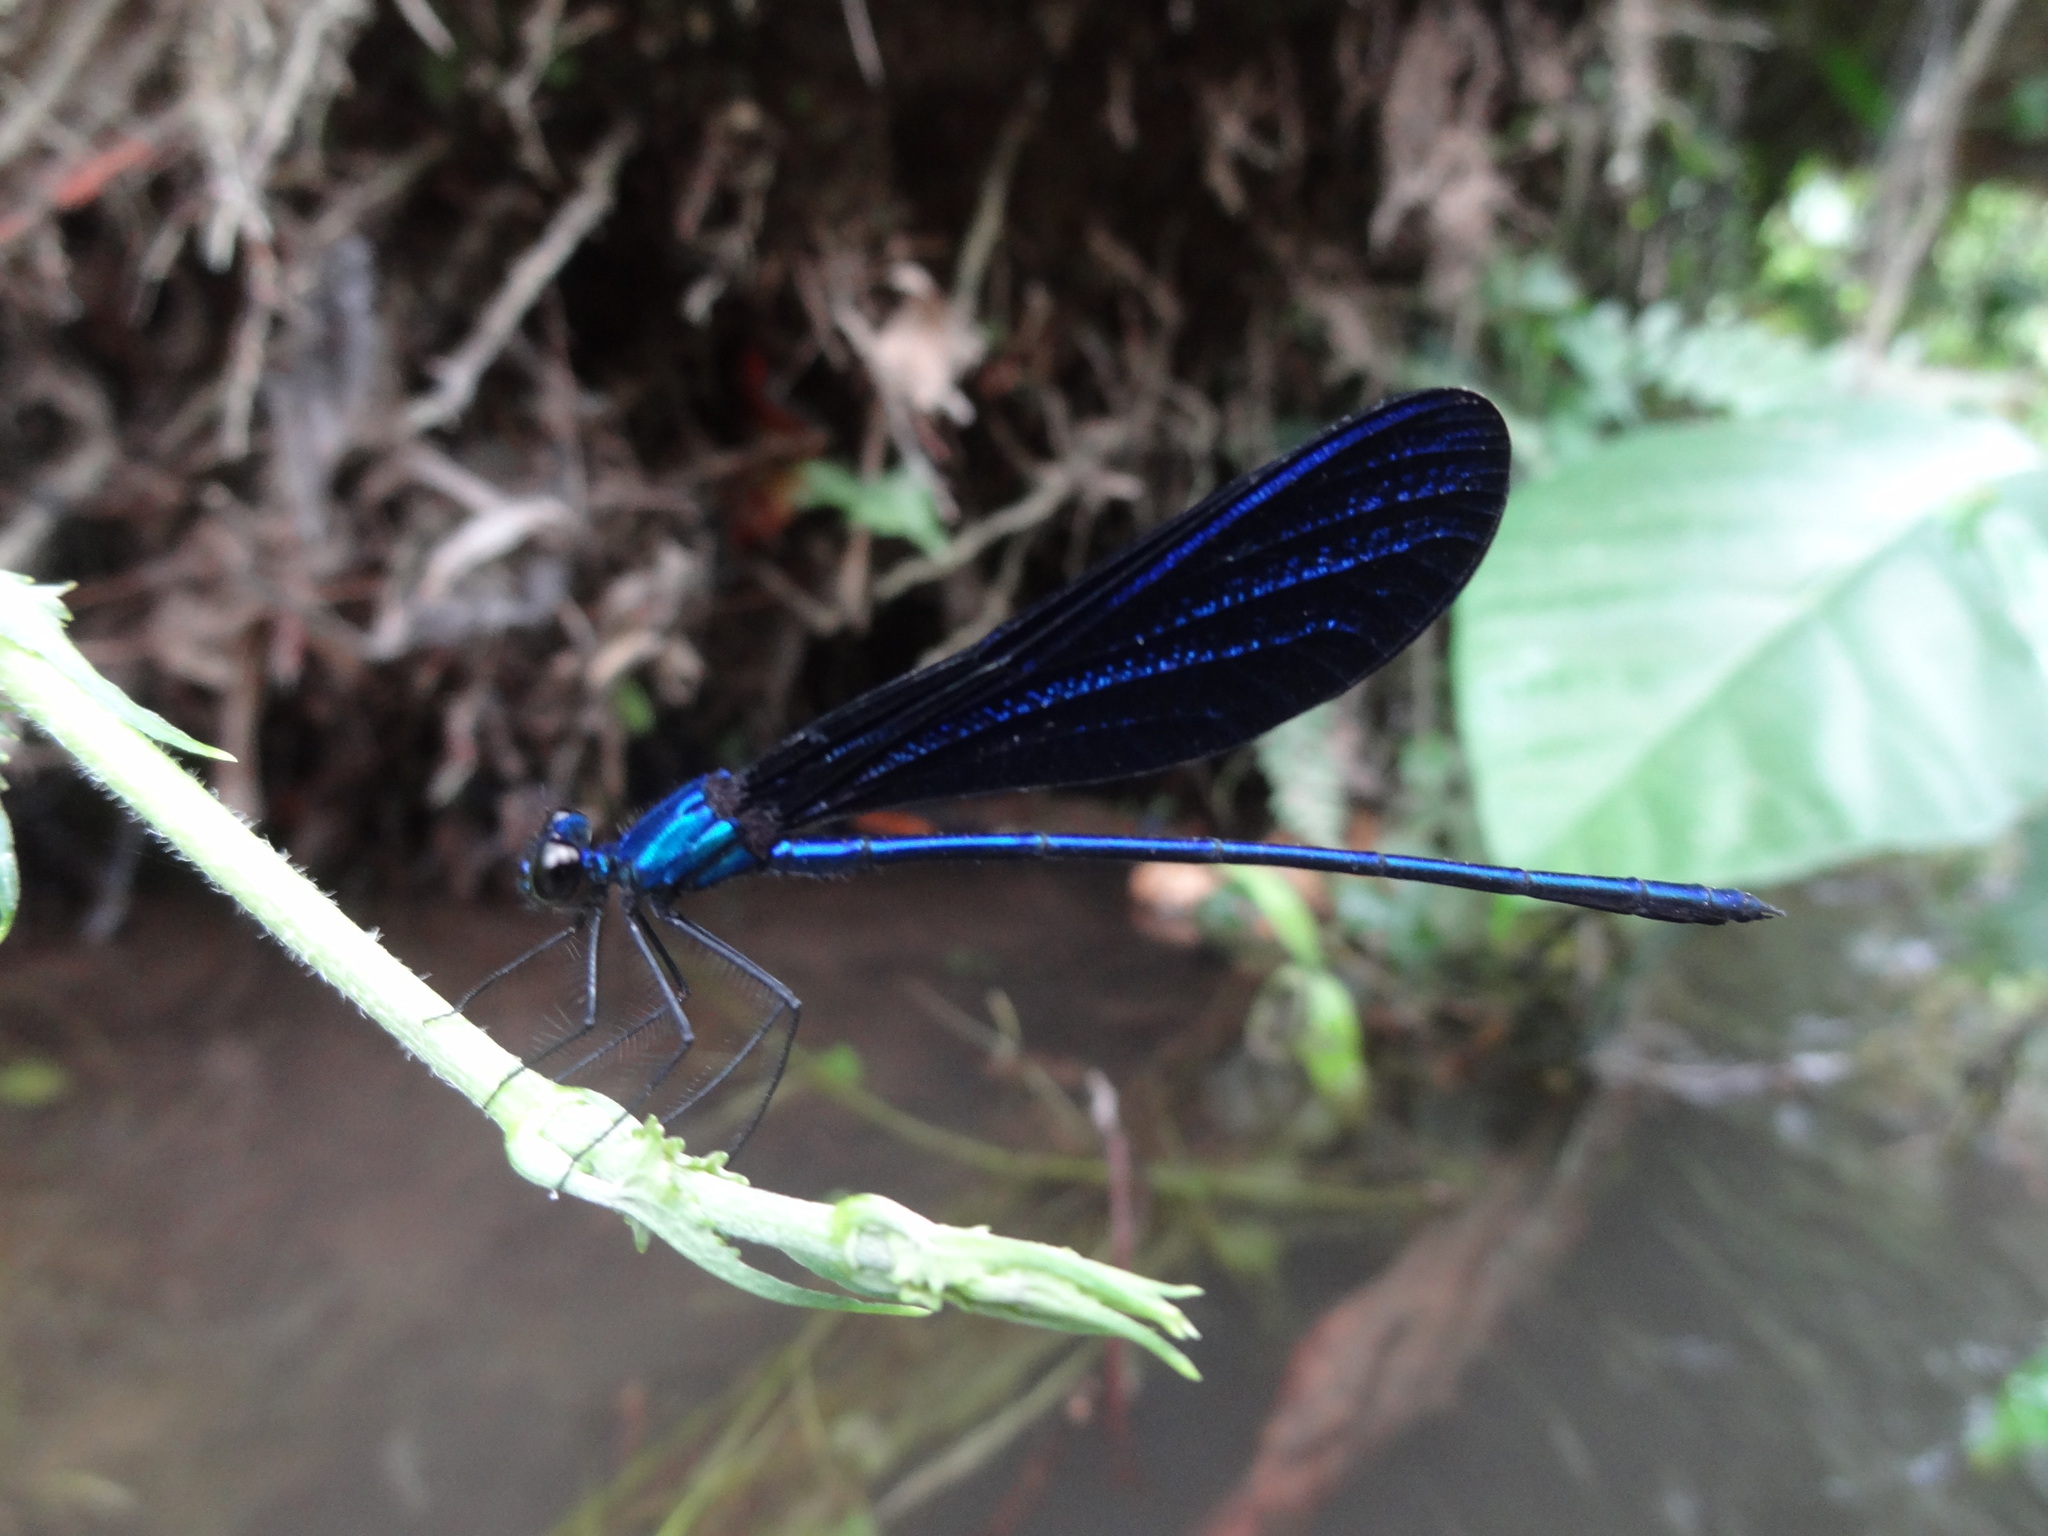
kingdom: Animalia
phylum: Arthropoda
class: Insecta
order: Odonata
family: Calopterygidae
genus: Vestalis
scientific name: Vestalis luctuosa
